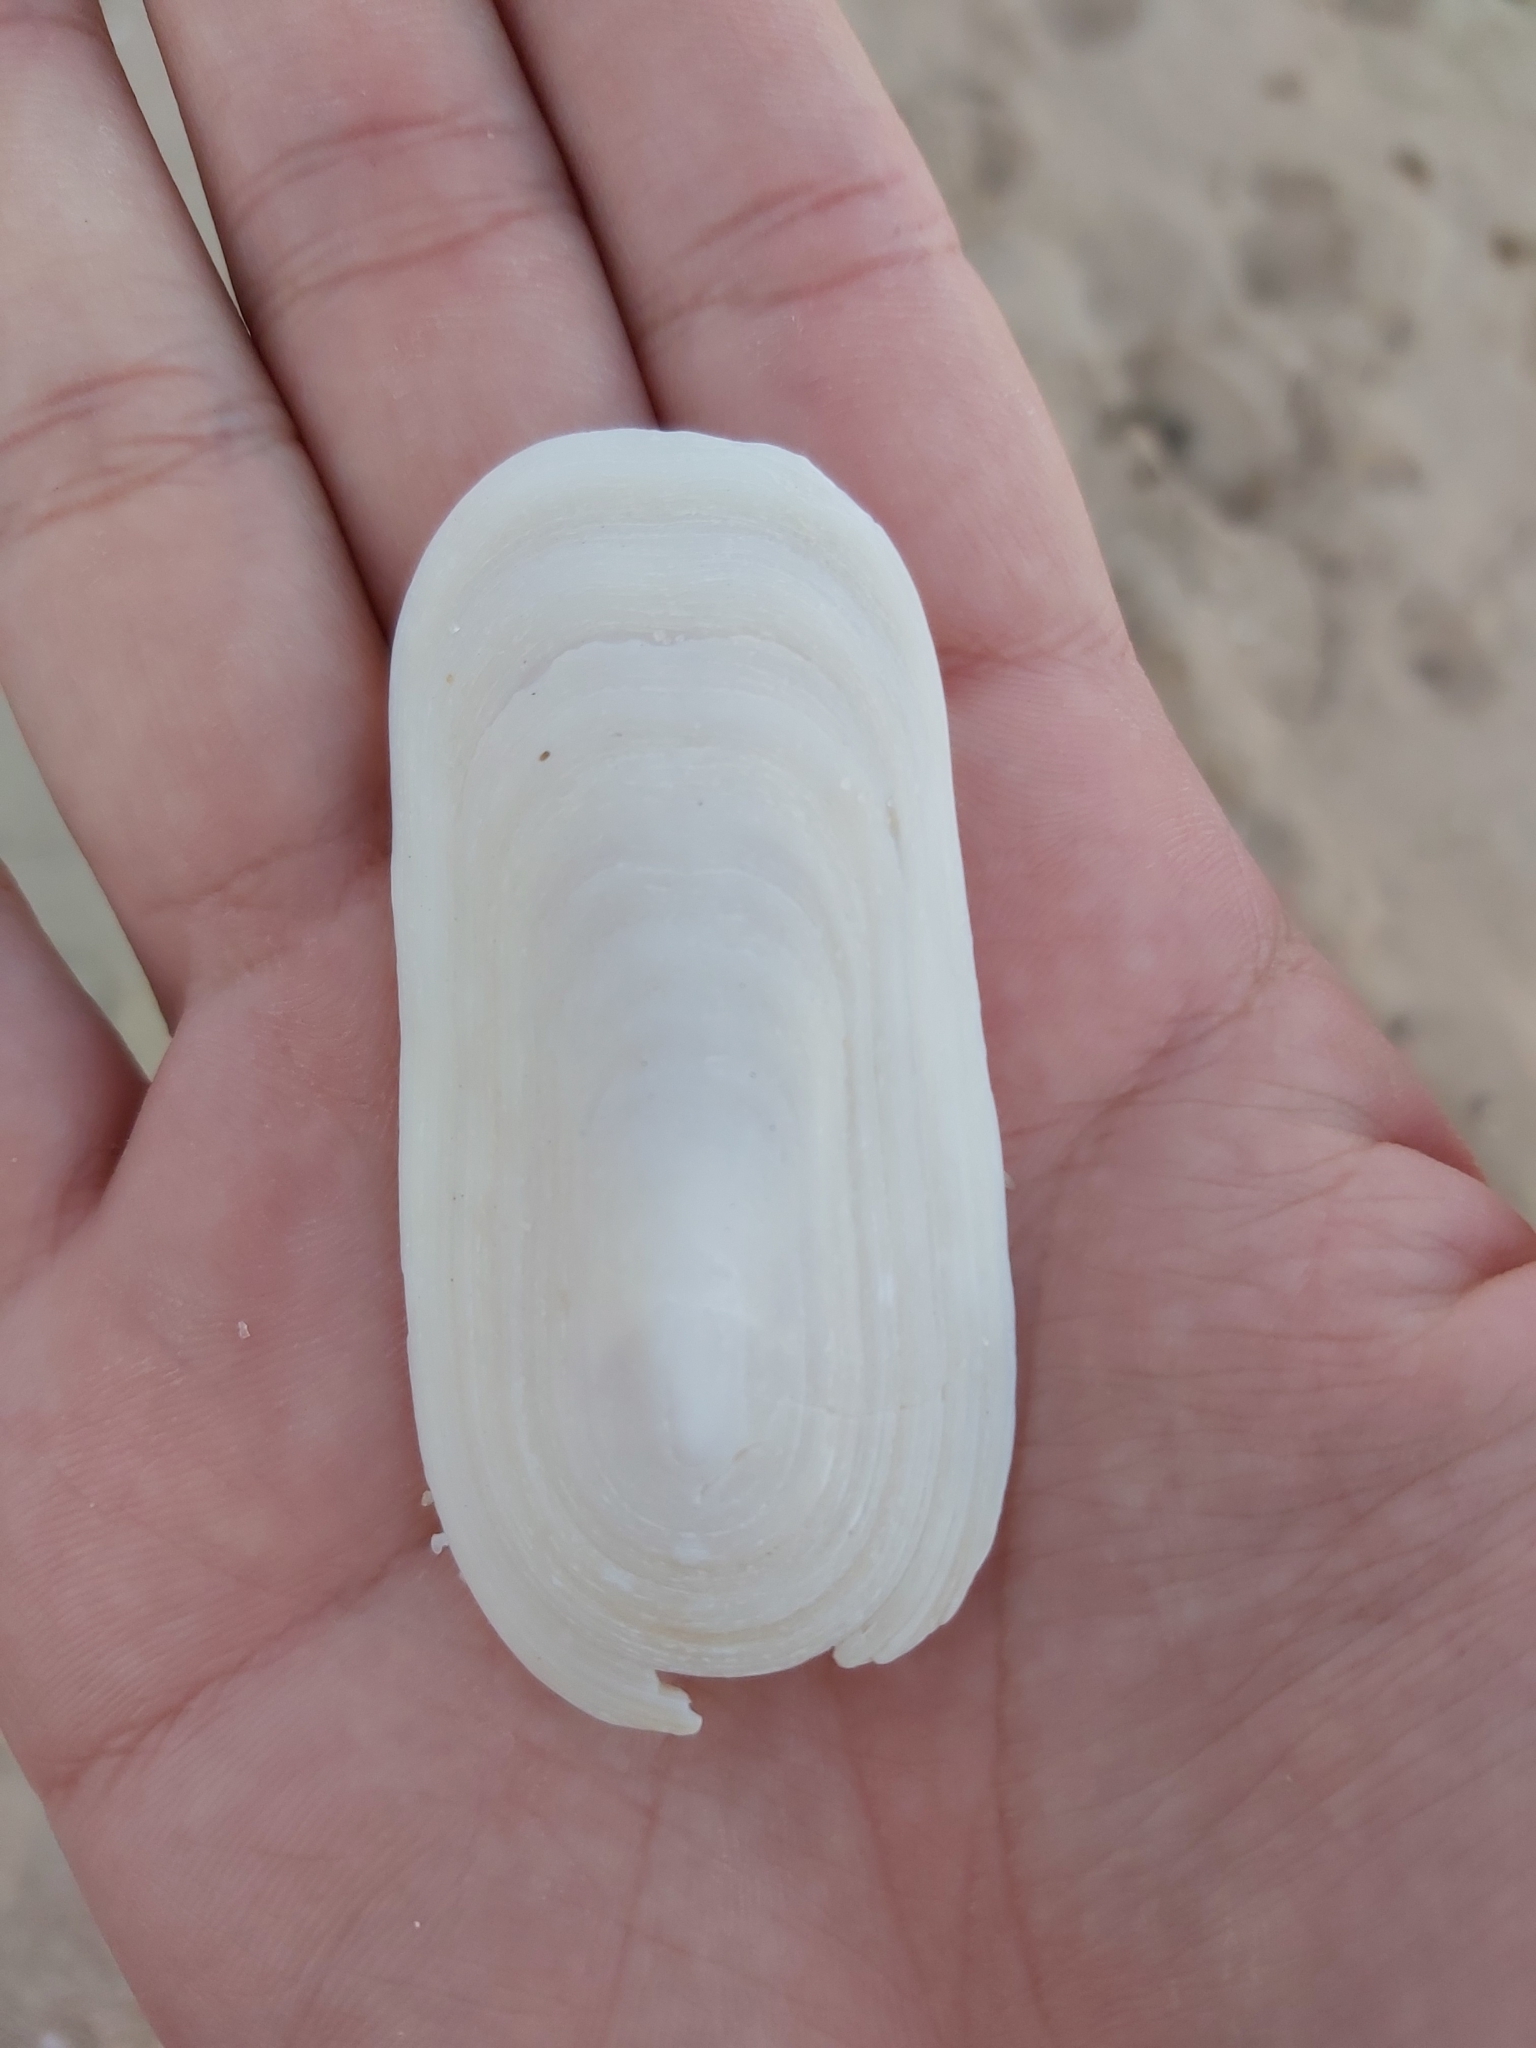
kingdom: Animalia
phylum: Mollusca
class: Gastropoda
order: Lepetellida
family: Fissurellidae
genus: Scutus
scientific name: Scutus antipodes
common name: Duckbill shell
